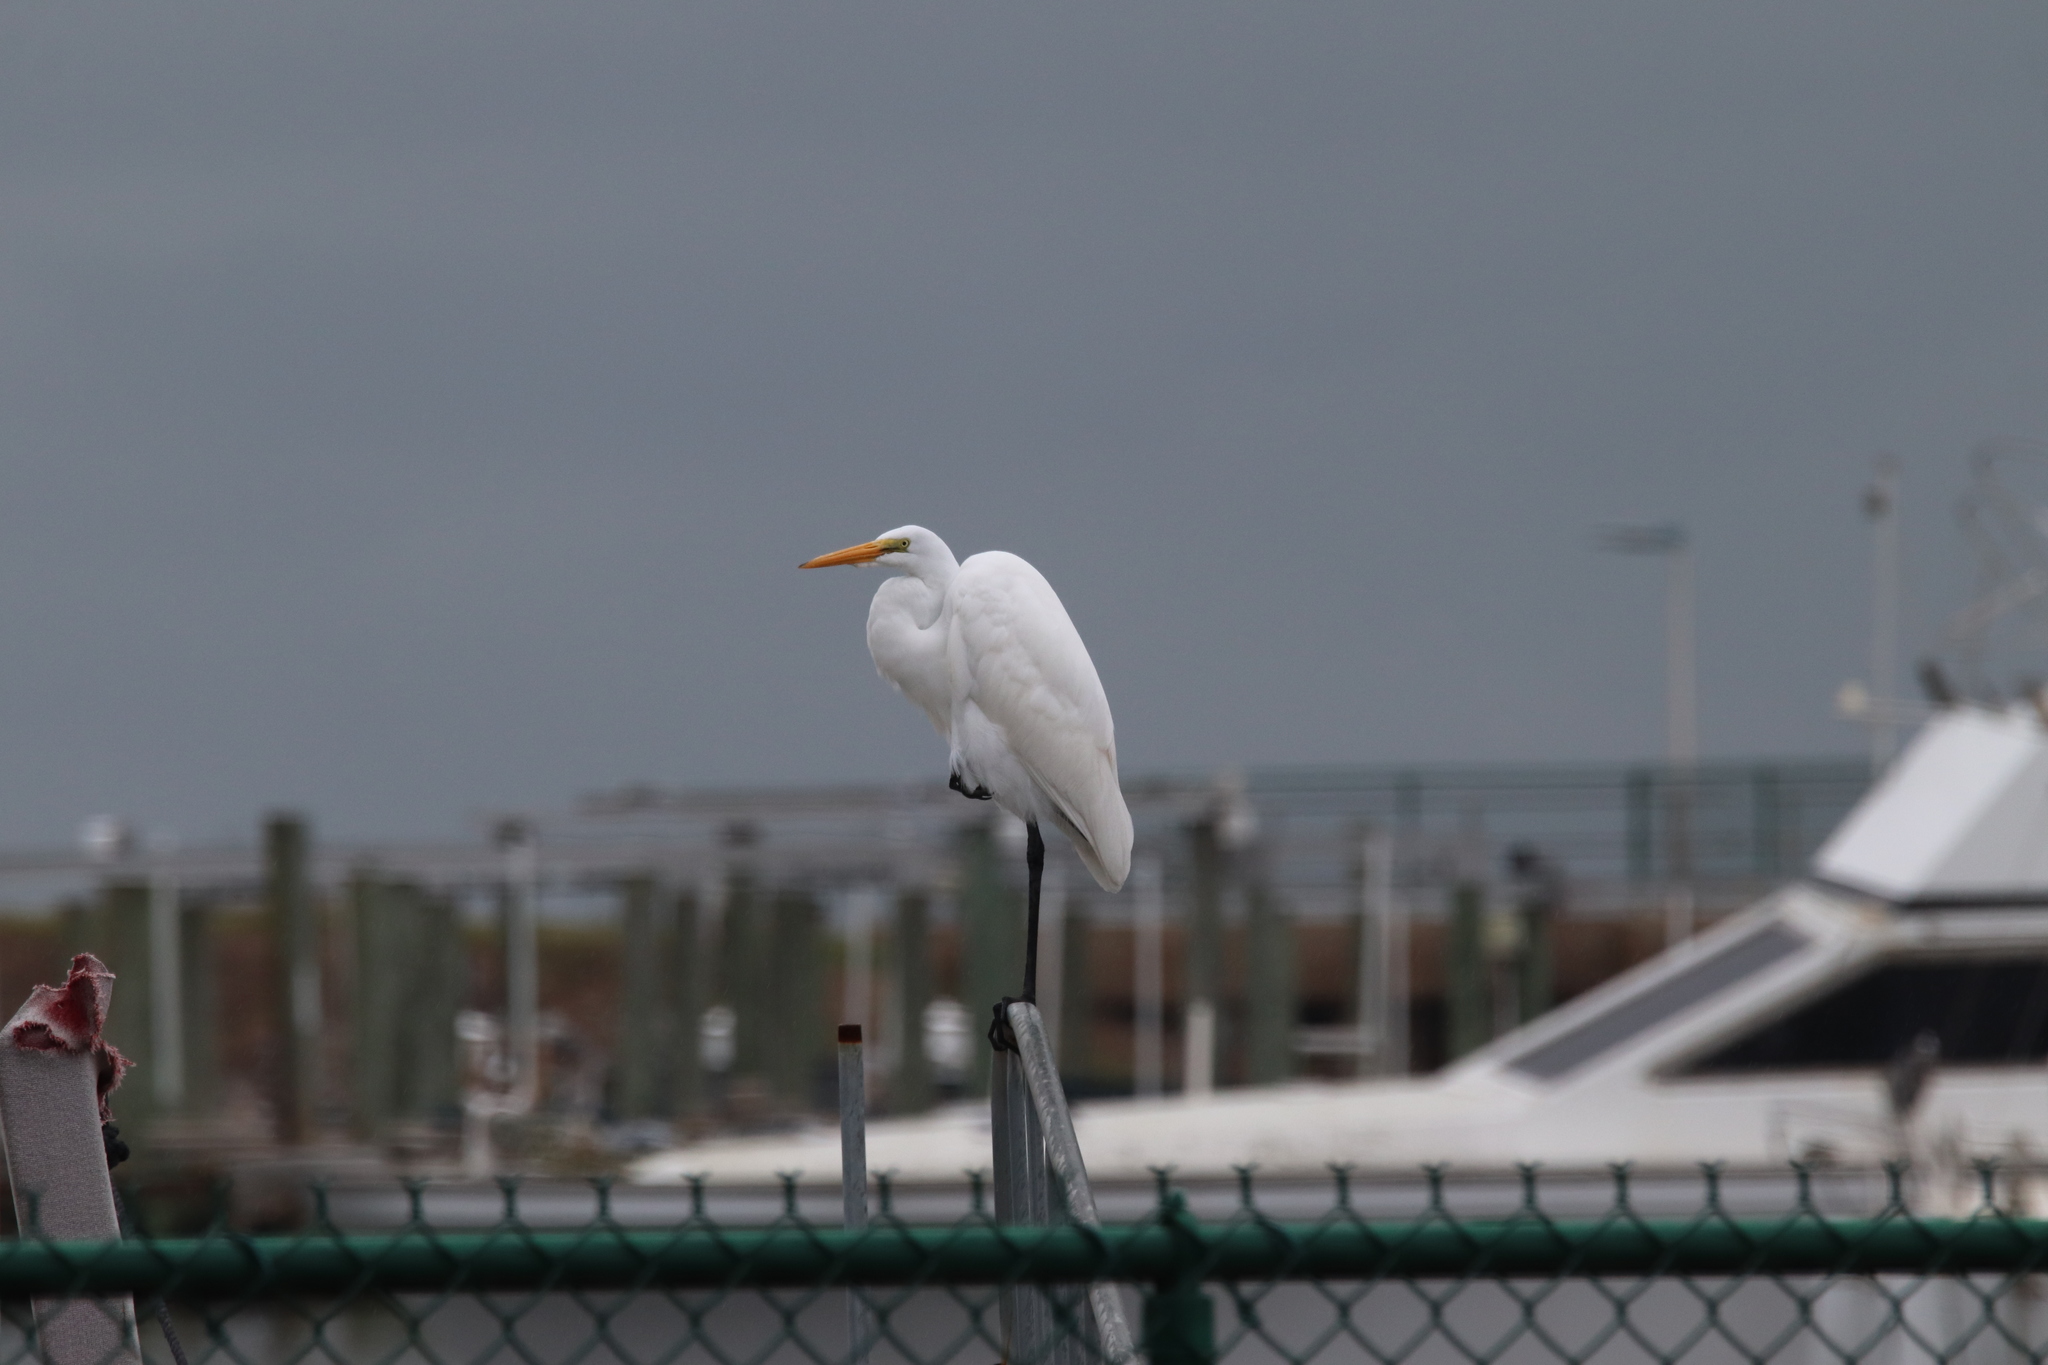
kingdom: Animalia
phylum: Chordata
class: Aves
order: Pelecaniformes
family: Ardeidae
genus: Ardea
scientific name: Ardea alba
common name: Great egret
